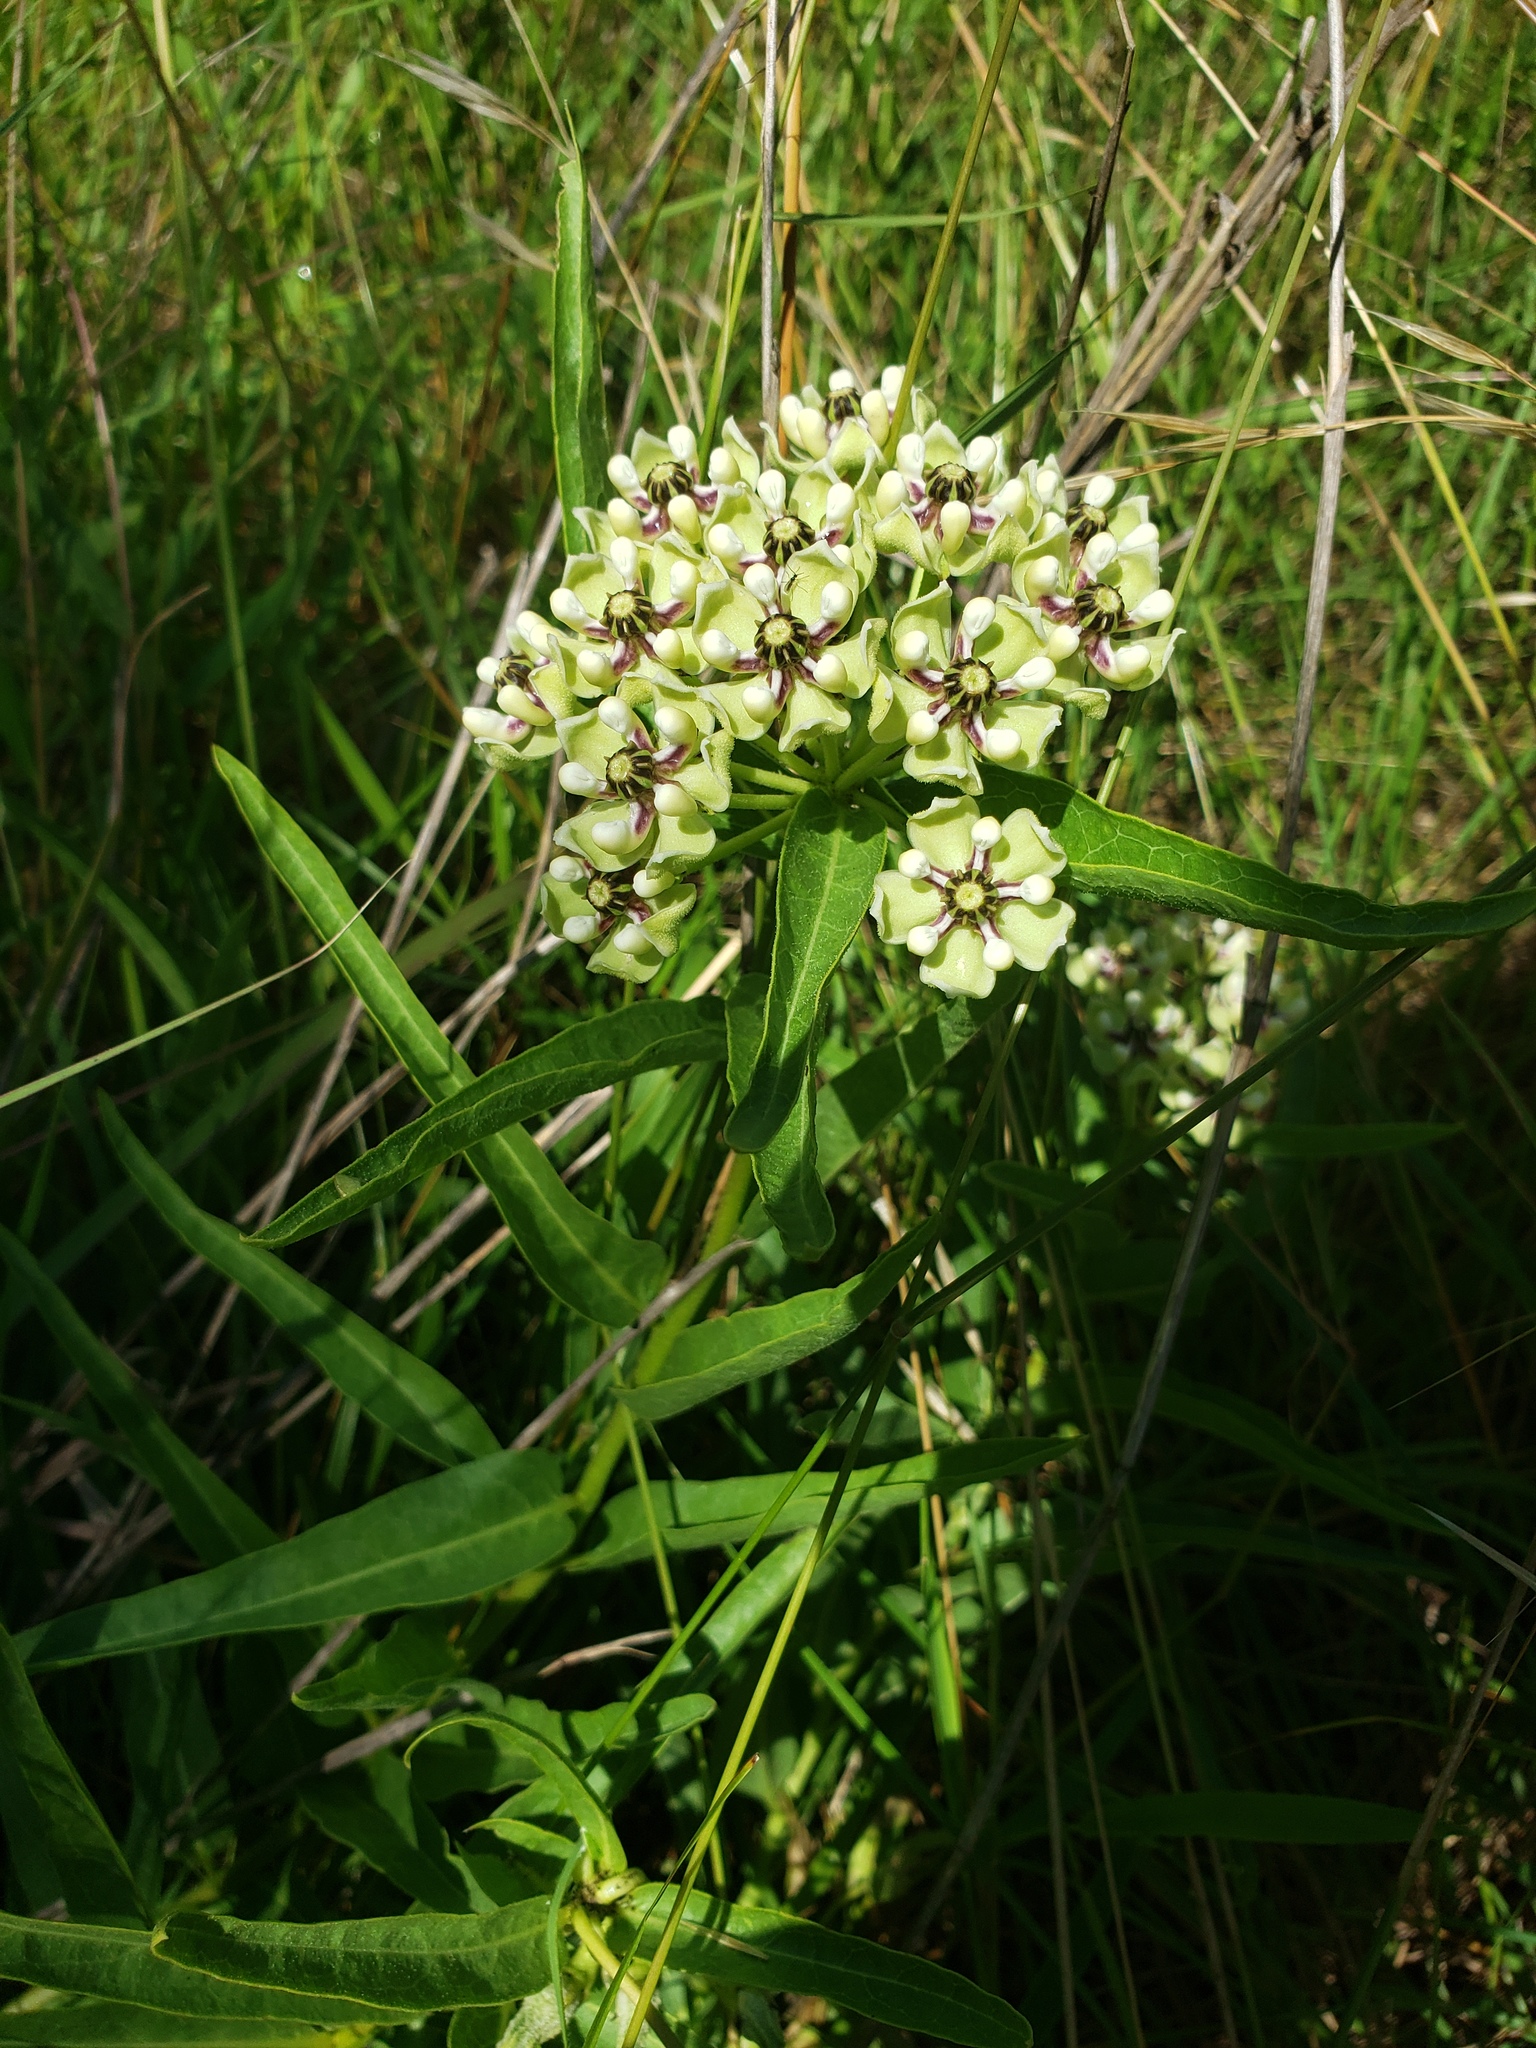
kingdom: Plantae
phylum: Tracheophyta
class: Magnoliopsida
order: Gentianales
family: Apocynaceae
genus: Asclepias
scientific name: Asclepias asperula
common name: Antelope horns
